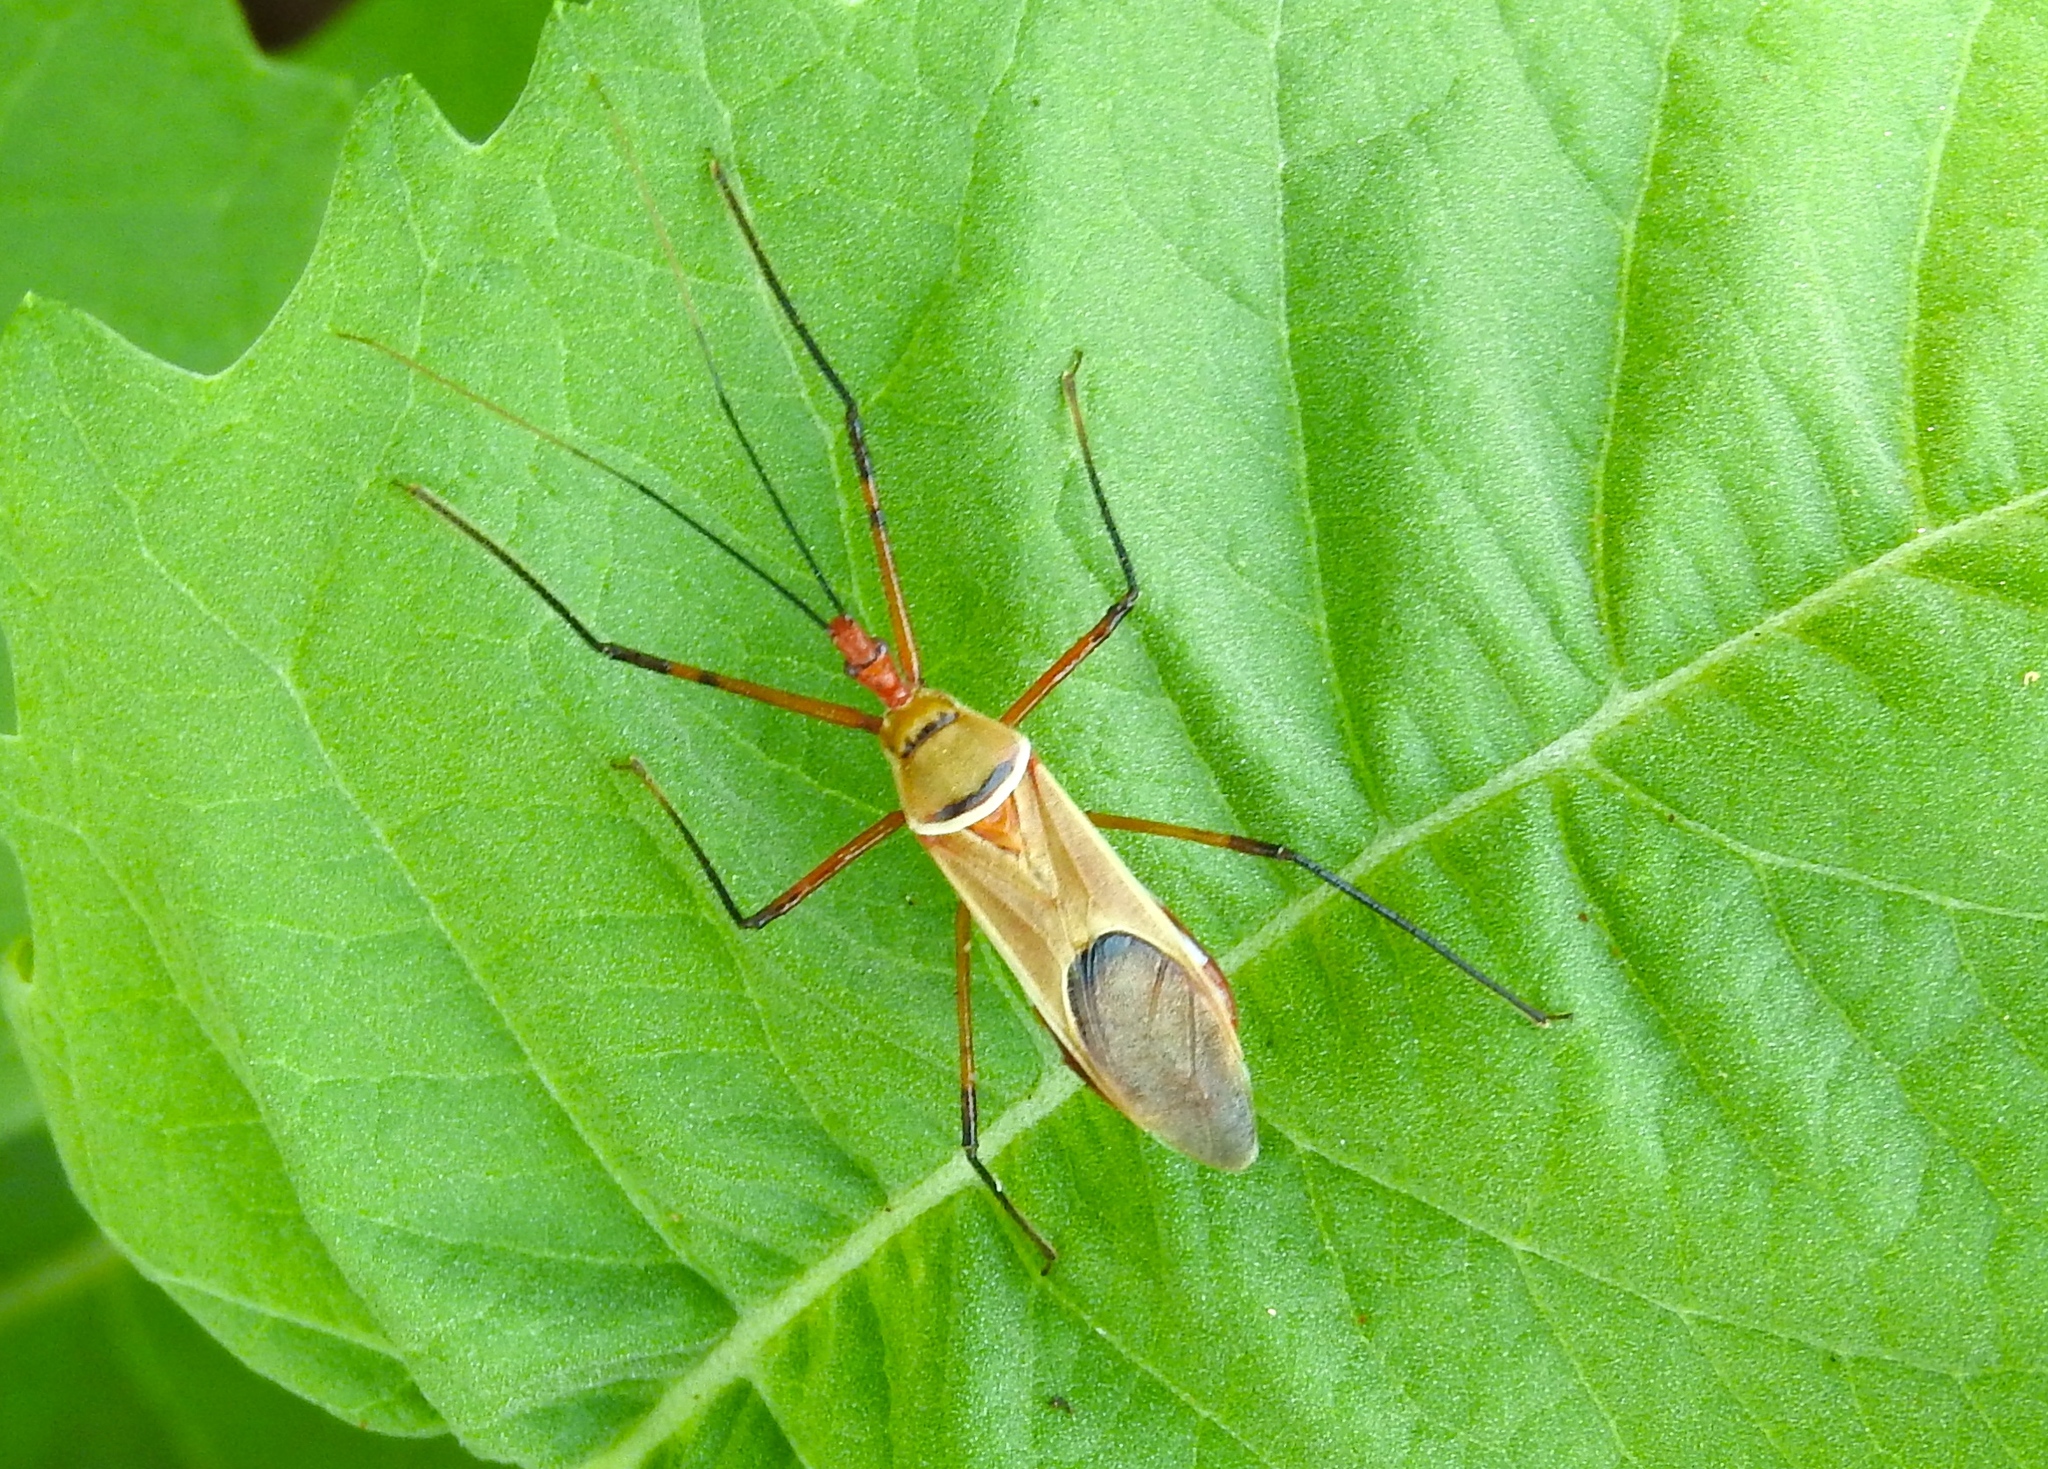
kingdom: Animalia
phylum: Arthropoda
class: Insecta
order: Hemiptera
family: Reduviidae
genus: Zelus
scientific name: Zelus grassans
